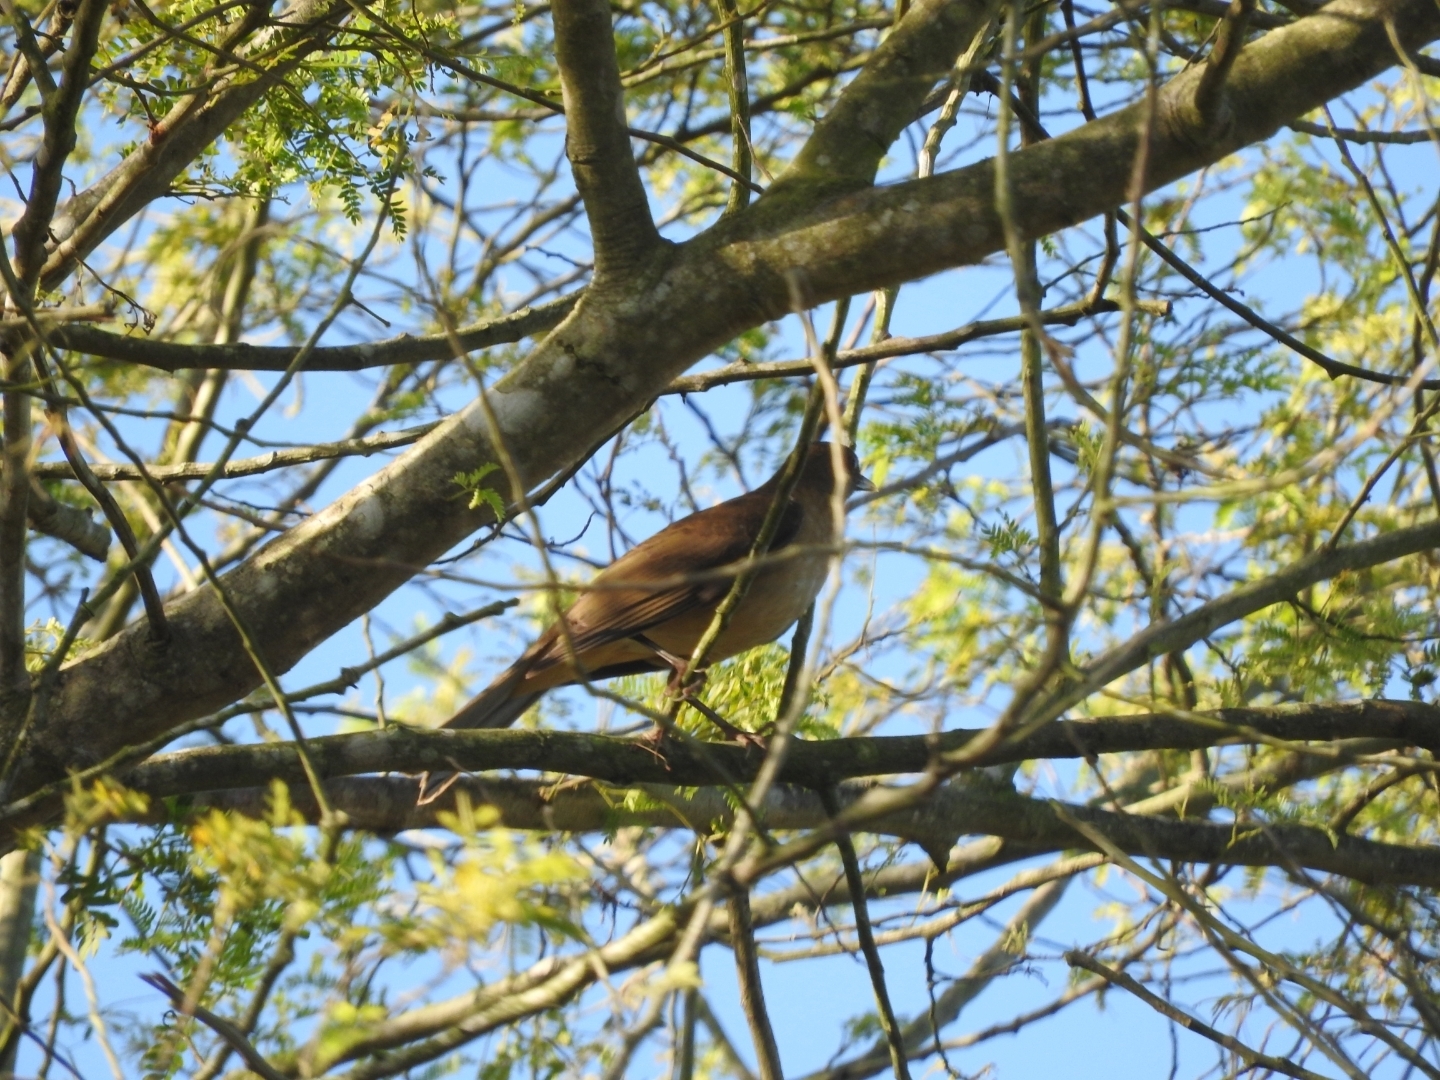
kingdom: Animalia
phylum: Chordata
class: Aves
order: Passeriformes
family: Turdidae
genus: Turdus
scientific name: Turdus grayi
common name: Clay-colored thrush
